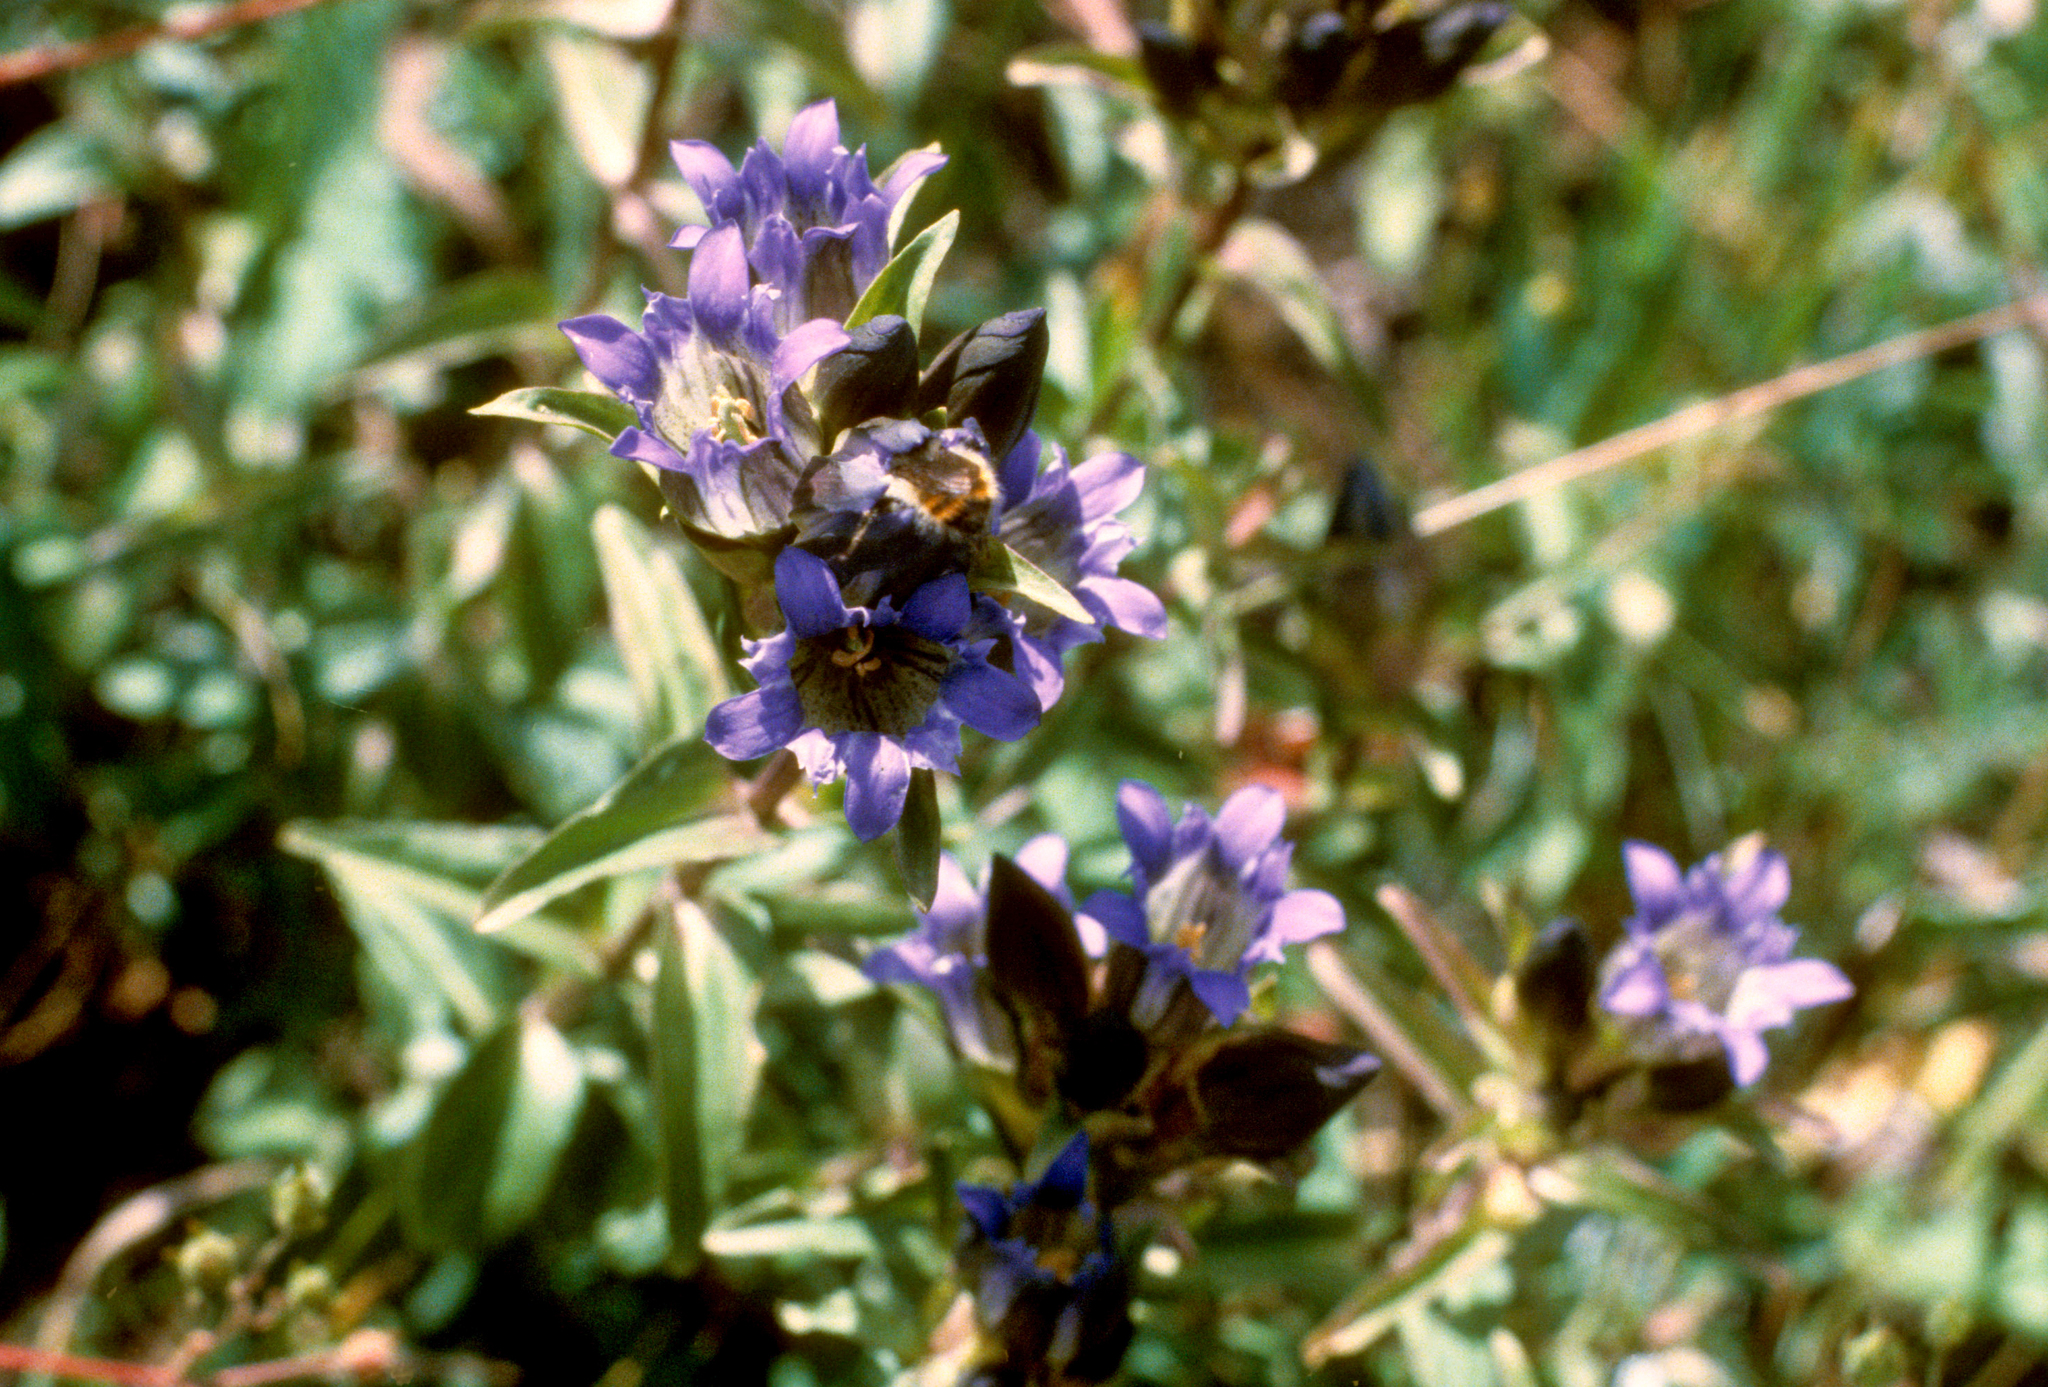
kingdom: Plantae
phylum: Tracheophyta
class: Magnoliopsida
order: Gentianales
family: Gentianaceae
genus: Gentiana
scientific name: Gentiana parryi
